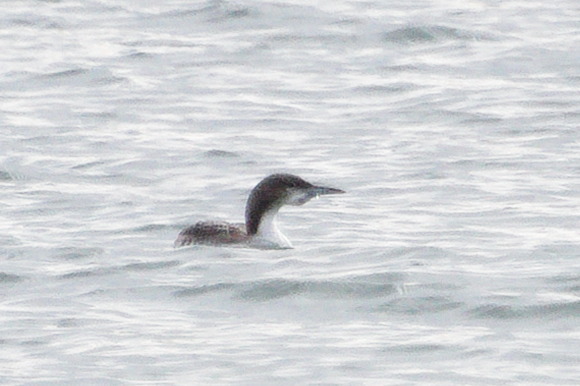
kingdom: Animalia
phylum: Chordata
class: Aves
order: Gaviiformes
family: Gaviidae
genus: Gavia
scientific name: Gavia pacifica
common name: Pacific loon
